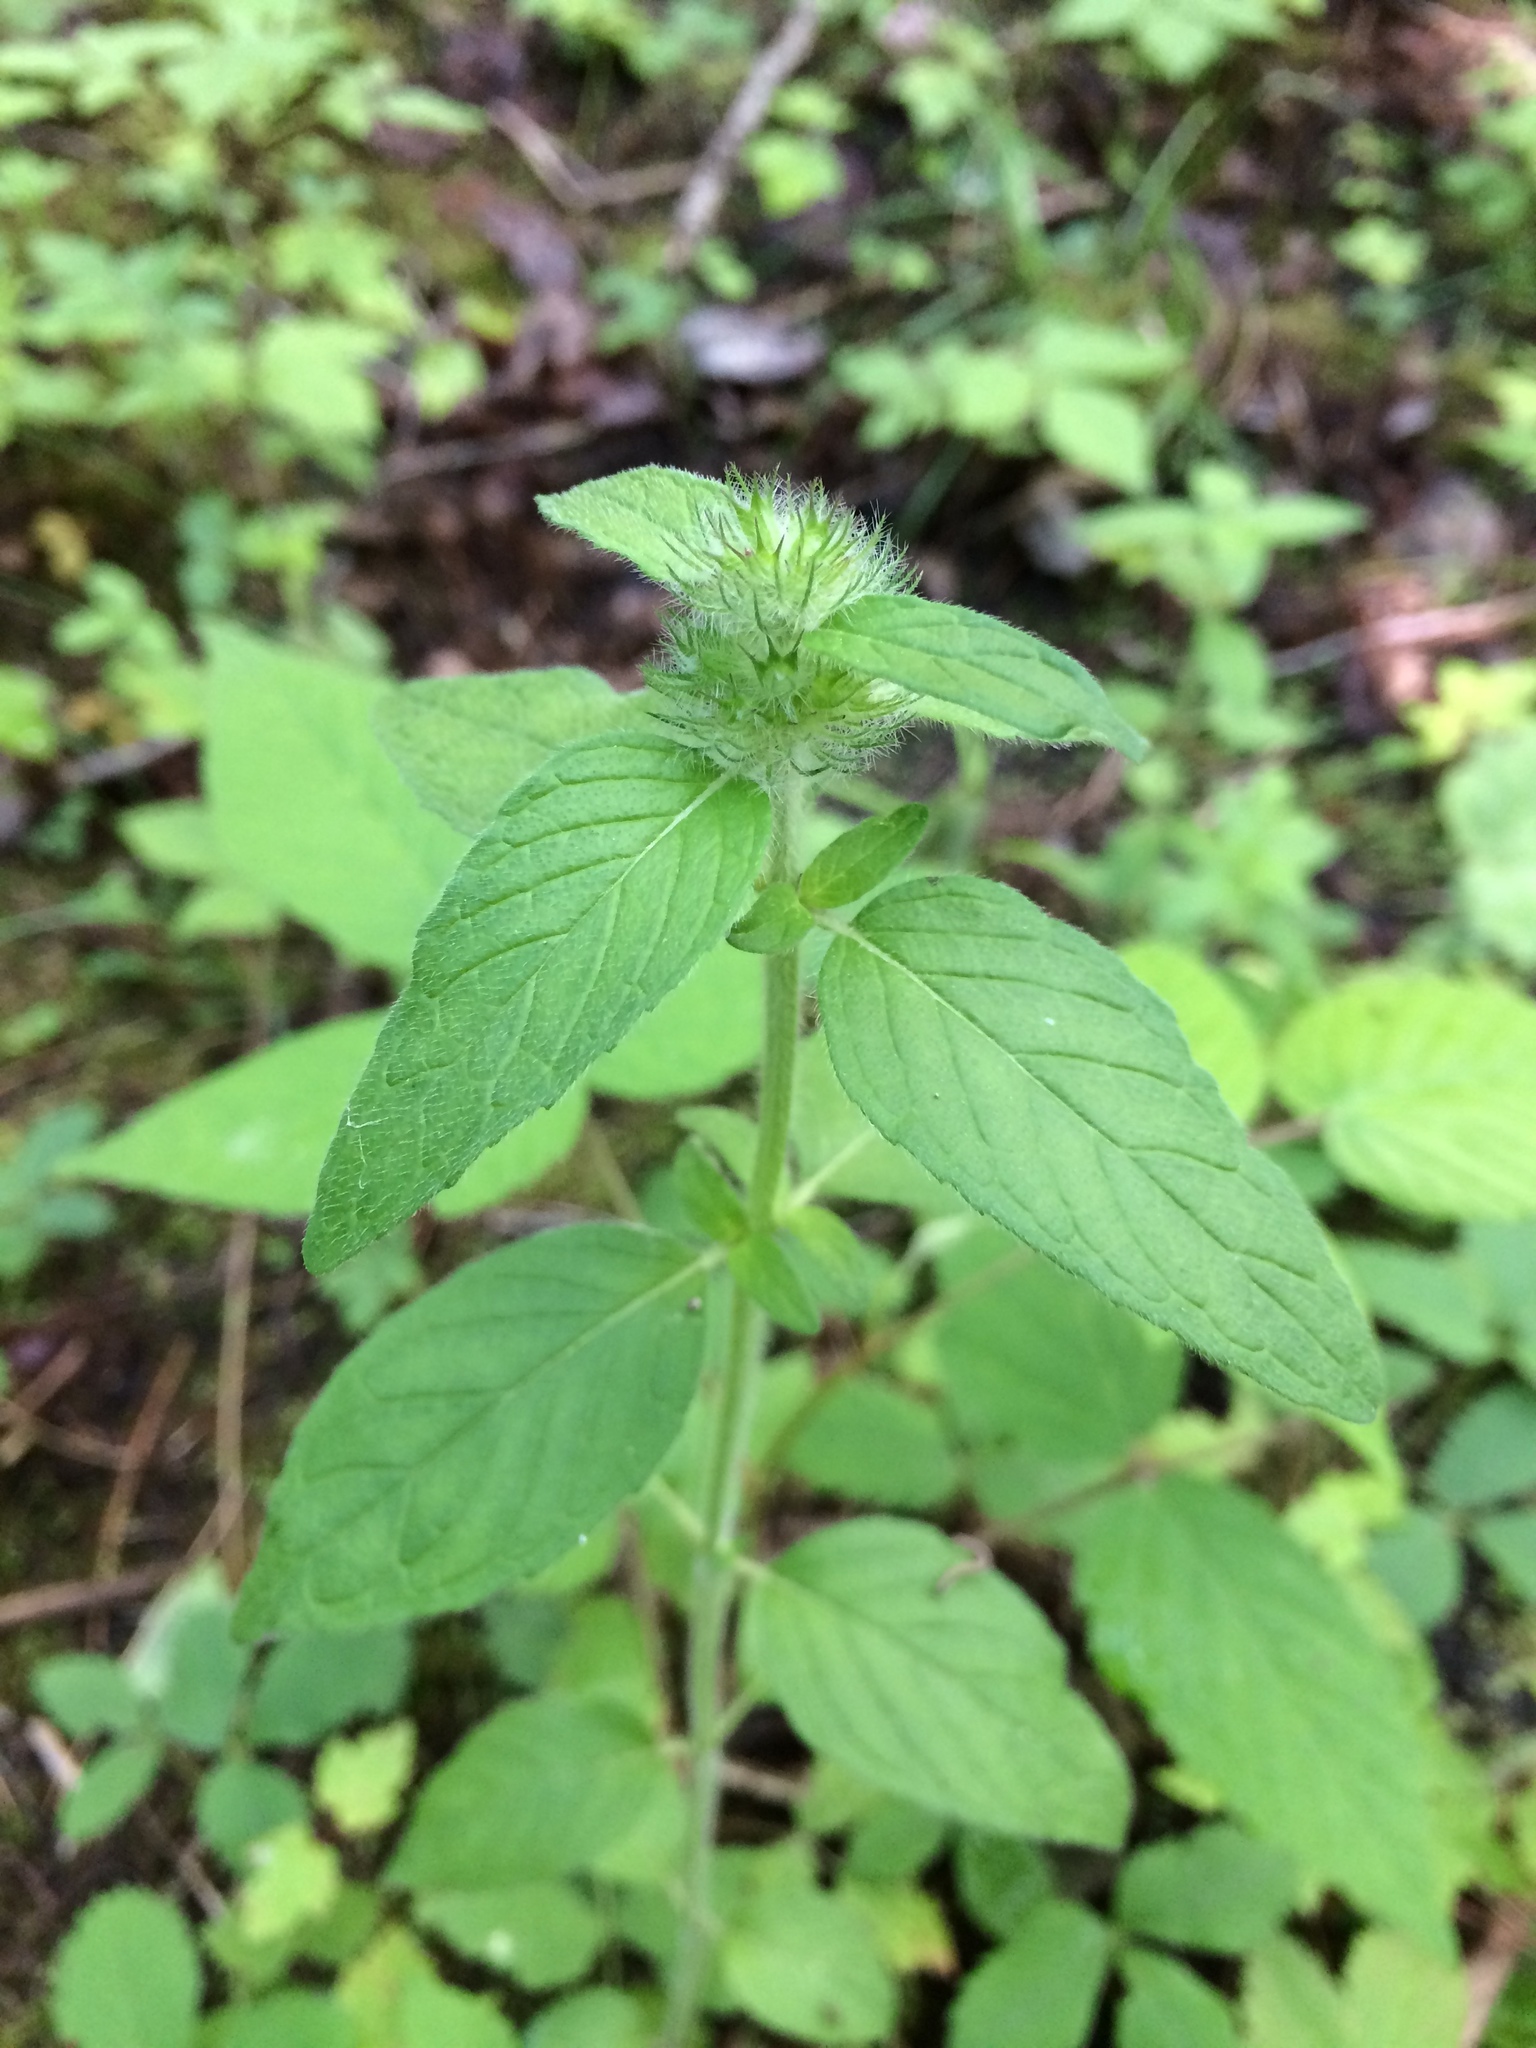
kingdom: Plantae
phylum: Tracheophyta
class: Magnoliopsida
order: Lamiales
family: Lamiaceae
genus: Clinopodium
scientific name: Clinopodium vulgare
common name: Wild basil
